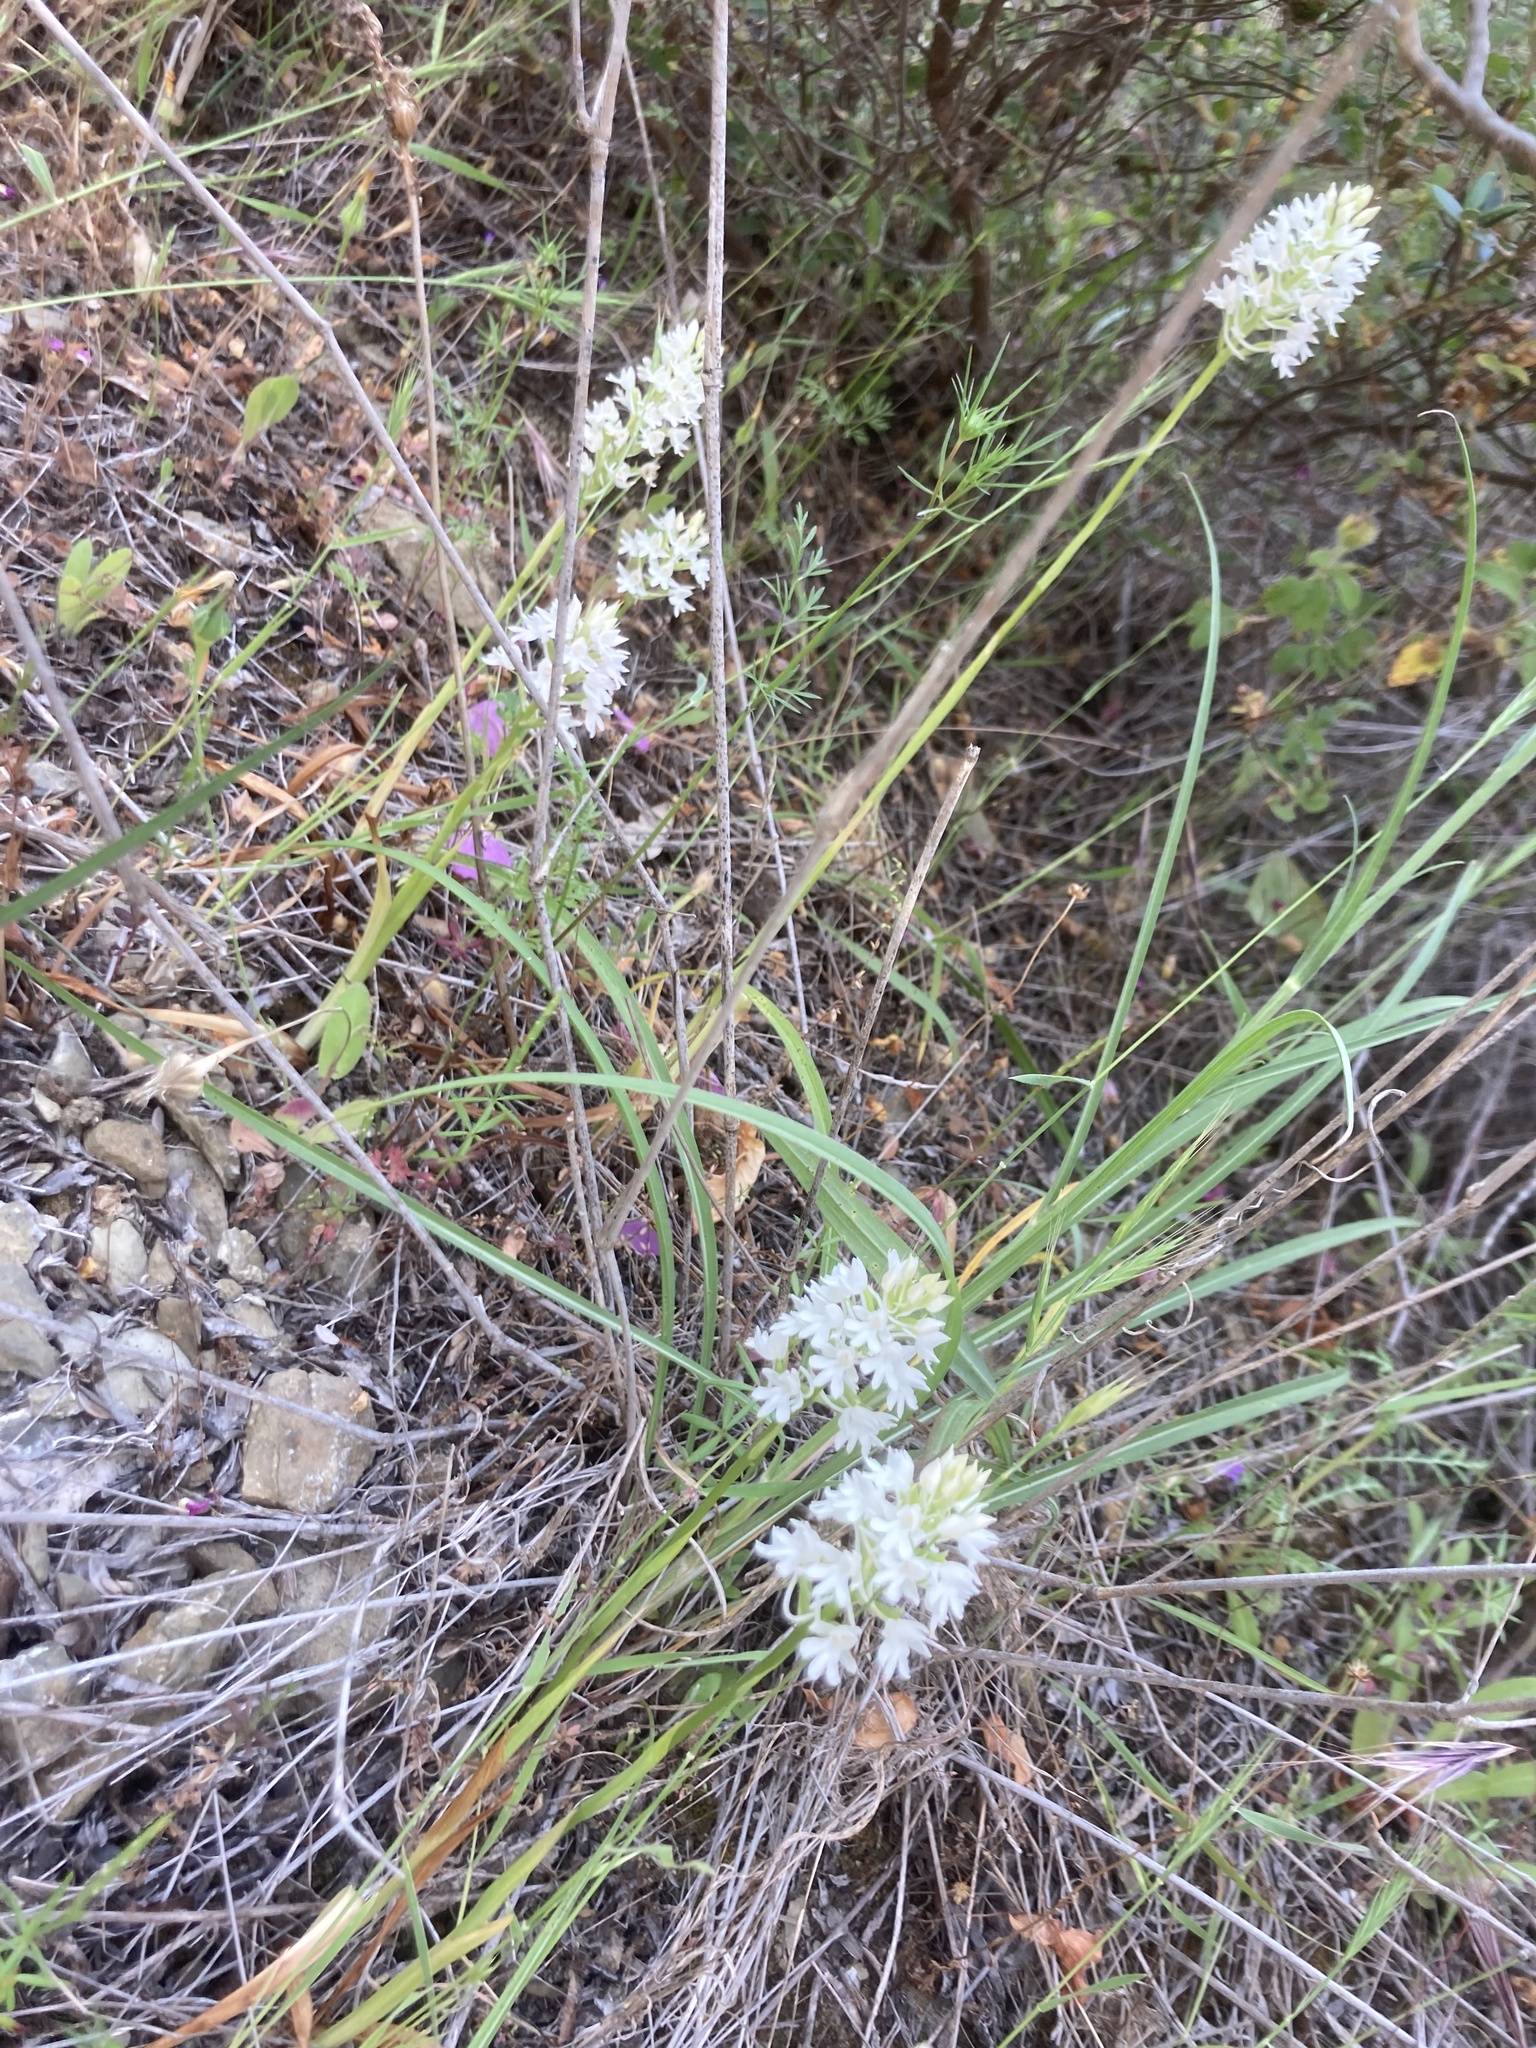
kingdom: Plantae
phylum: Tracheophyta
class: Liliopsida
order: Asparagales
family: Orchidaceae
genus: Anacamptis
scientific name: Anacamptis pyramidalis
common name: Pyramidal orchid
